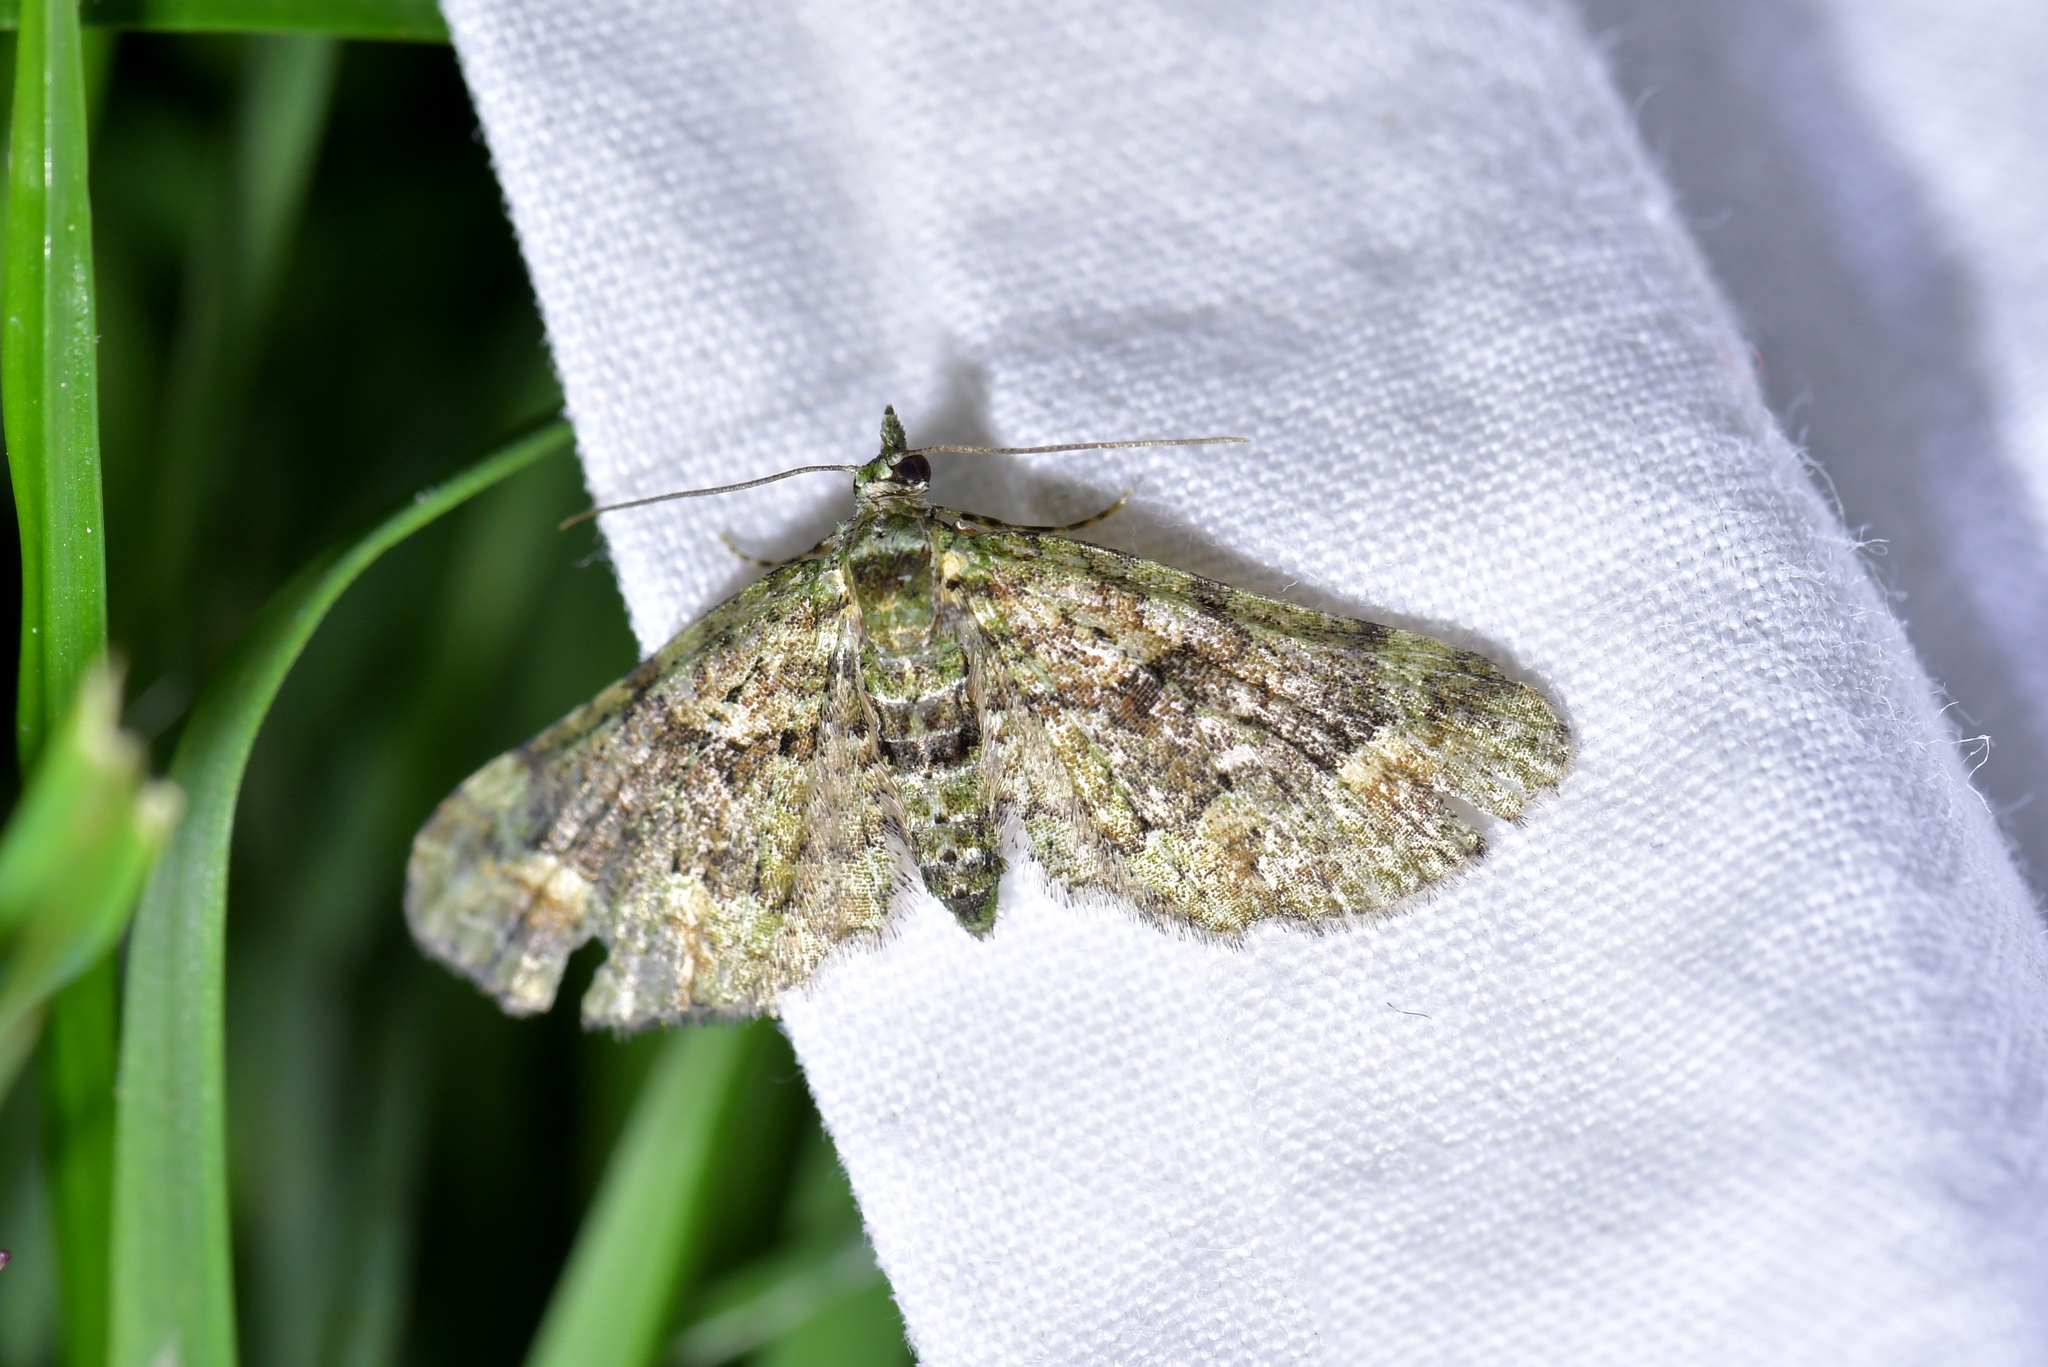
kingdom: Animalia
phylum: Arthropoda
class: Insecta
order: Lepidoptera
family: Geometridae
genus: Idaea
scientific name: Idaea mutanda
